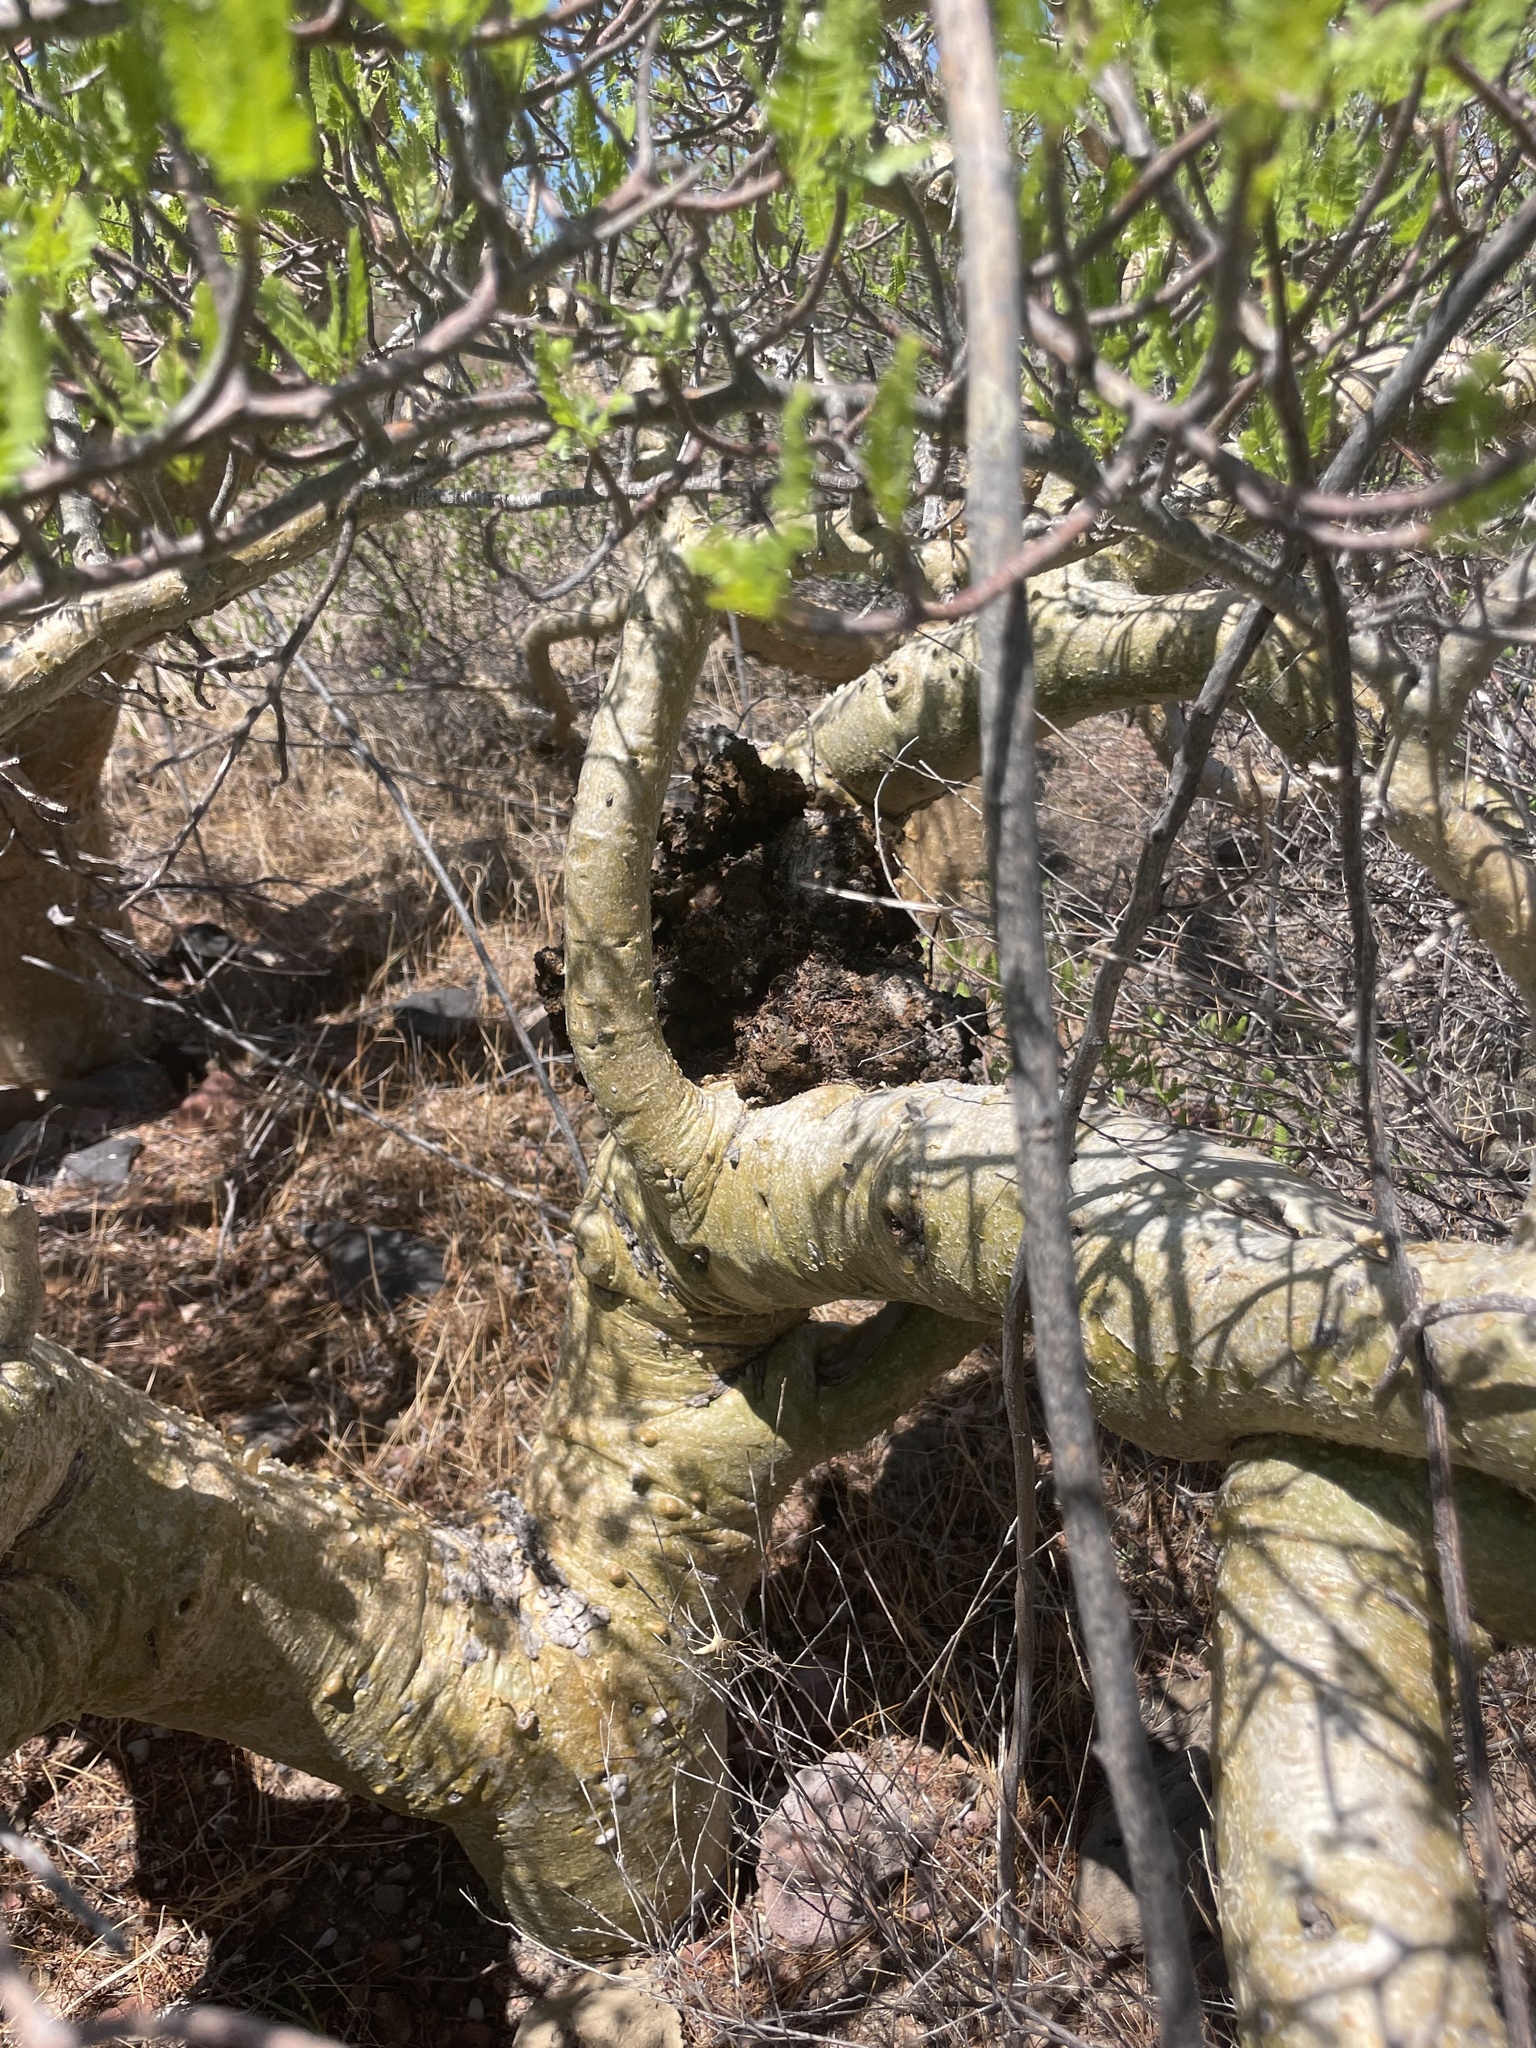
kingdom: Plantae
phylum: Tracheophyta
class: Magnoliopsida
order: Sapindales
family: Burseraceae
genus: Bursera
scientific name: Bursera microphylla
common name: Elephant tree
